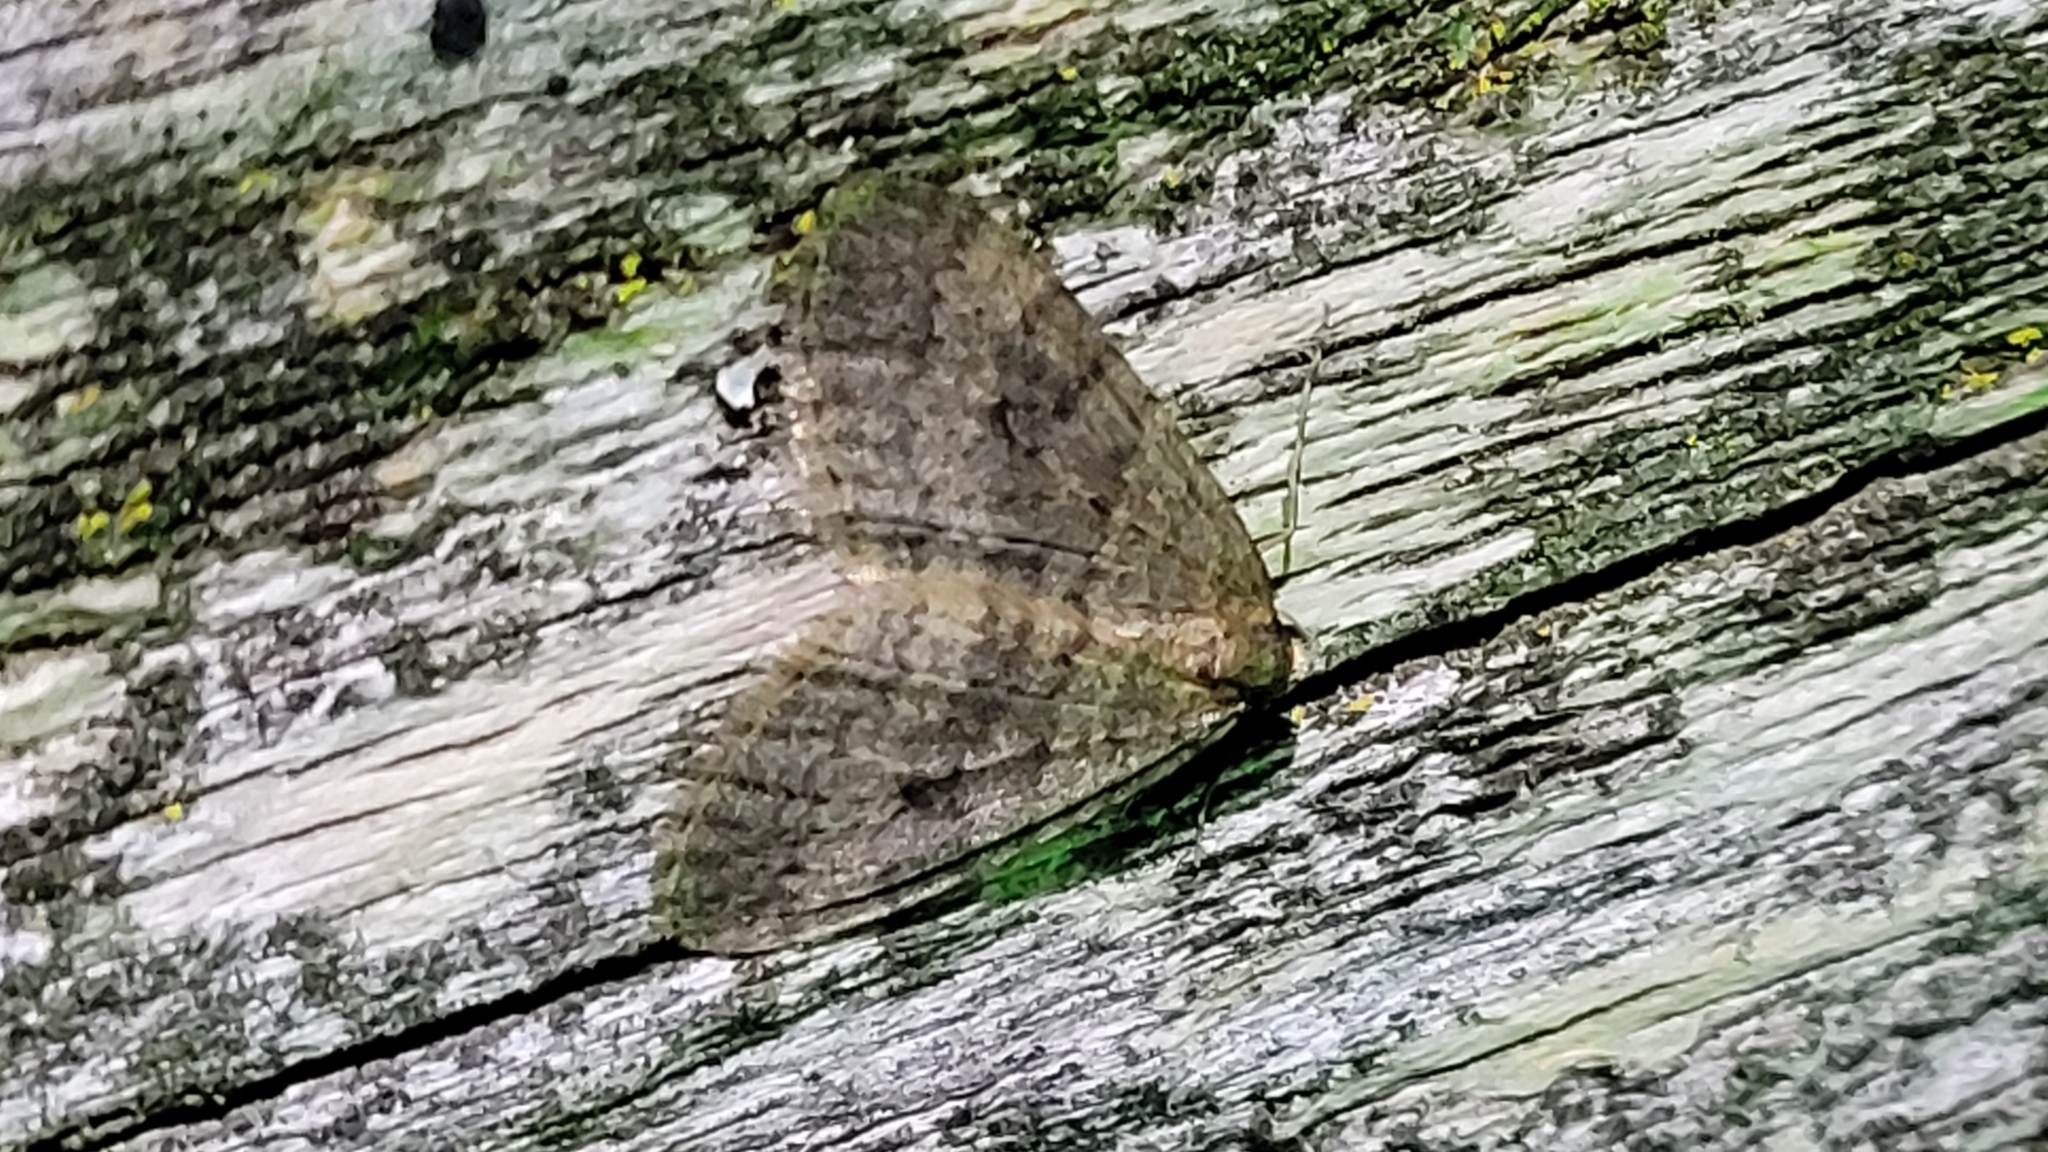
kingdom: Animalia
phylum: Arthropoda
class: Insecta
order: Lepidoptera
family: Geometridae
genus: Operophtera
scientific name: Operophtera brumata
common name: Winter moth
